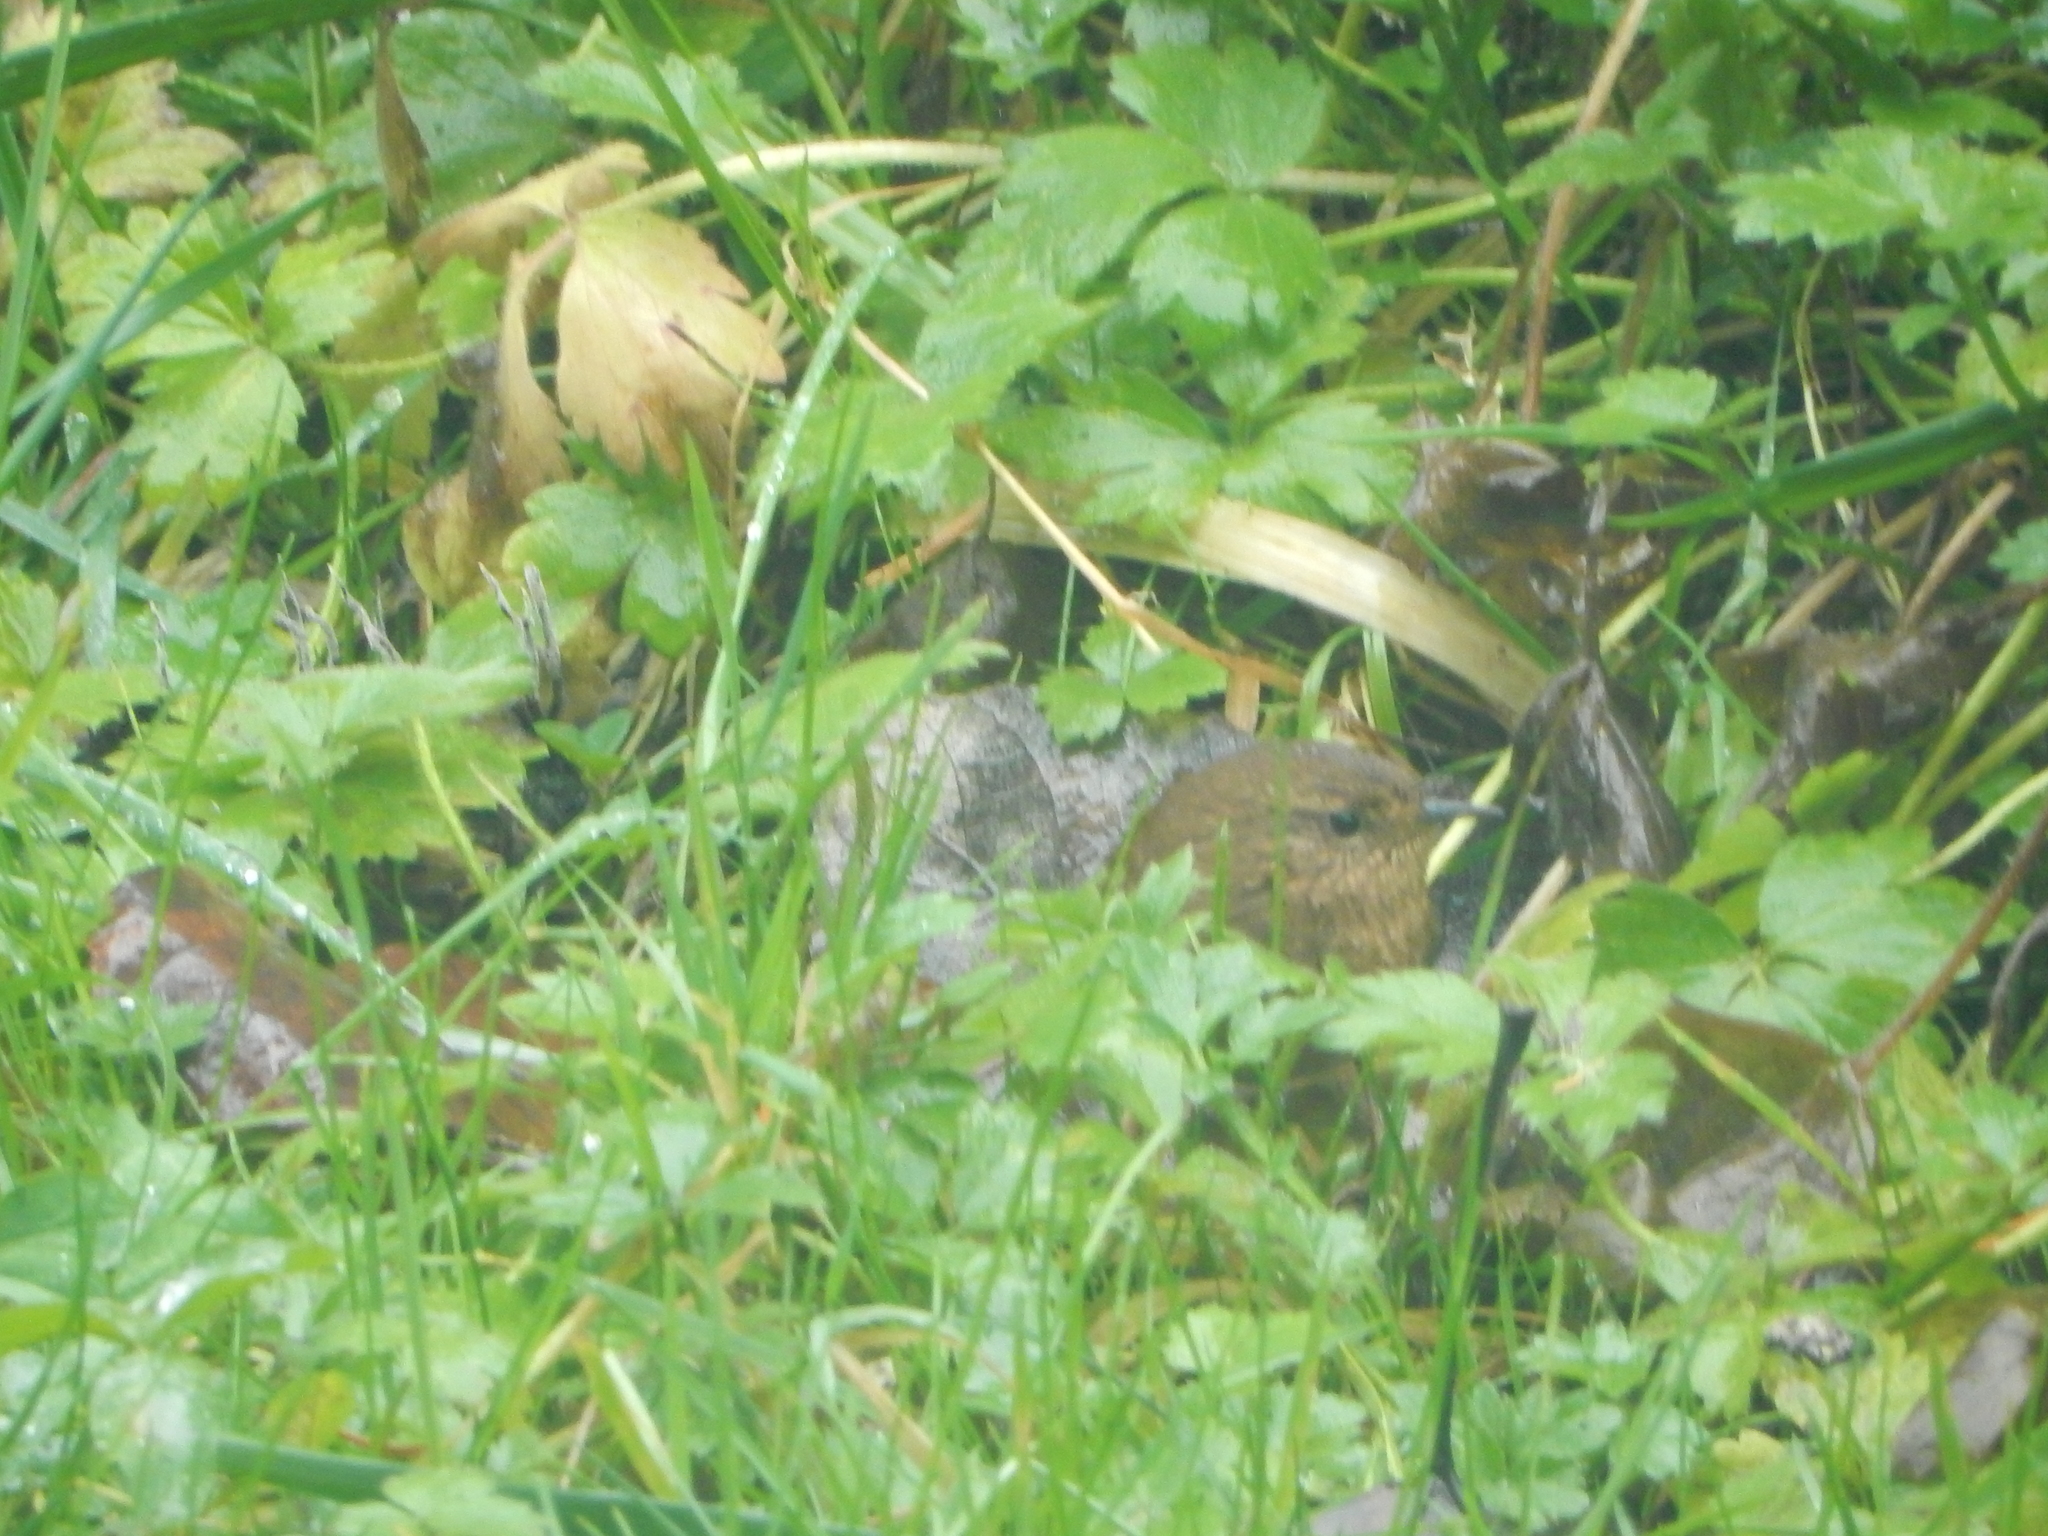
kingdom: Animalia
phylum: Chordata
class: Aves
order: Passeriformes
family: Troglodytidae
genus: Troglodytes
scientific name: Troglodytes pacificus
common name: Pacific wren
